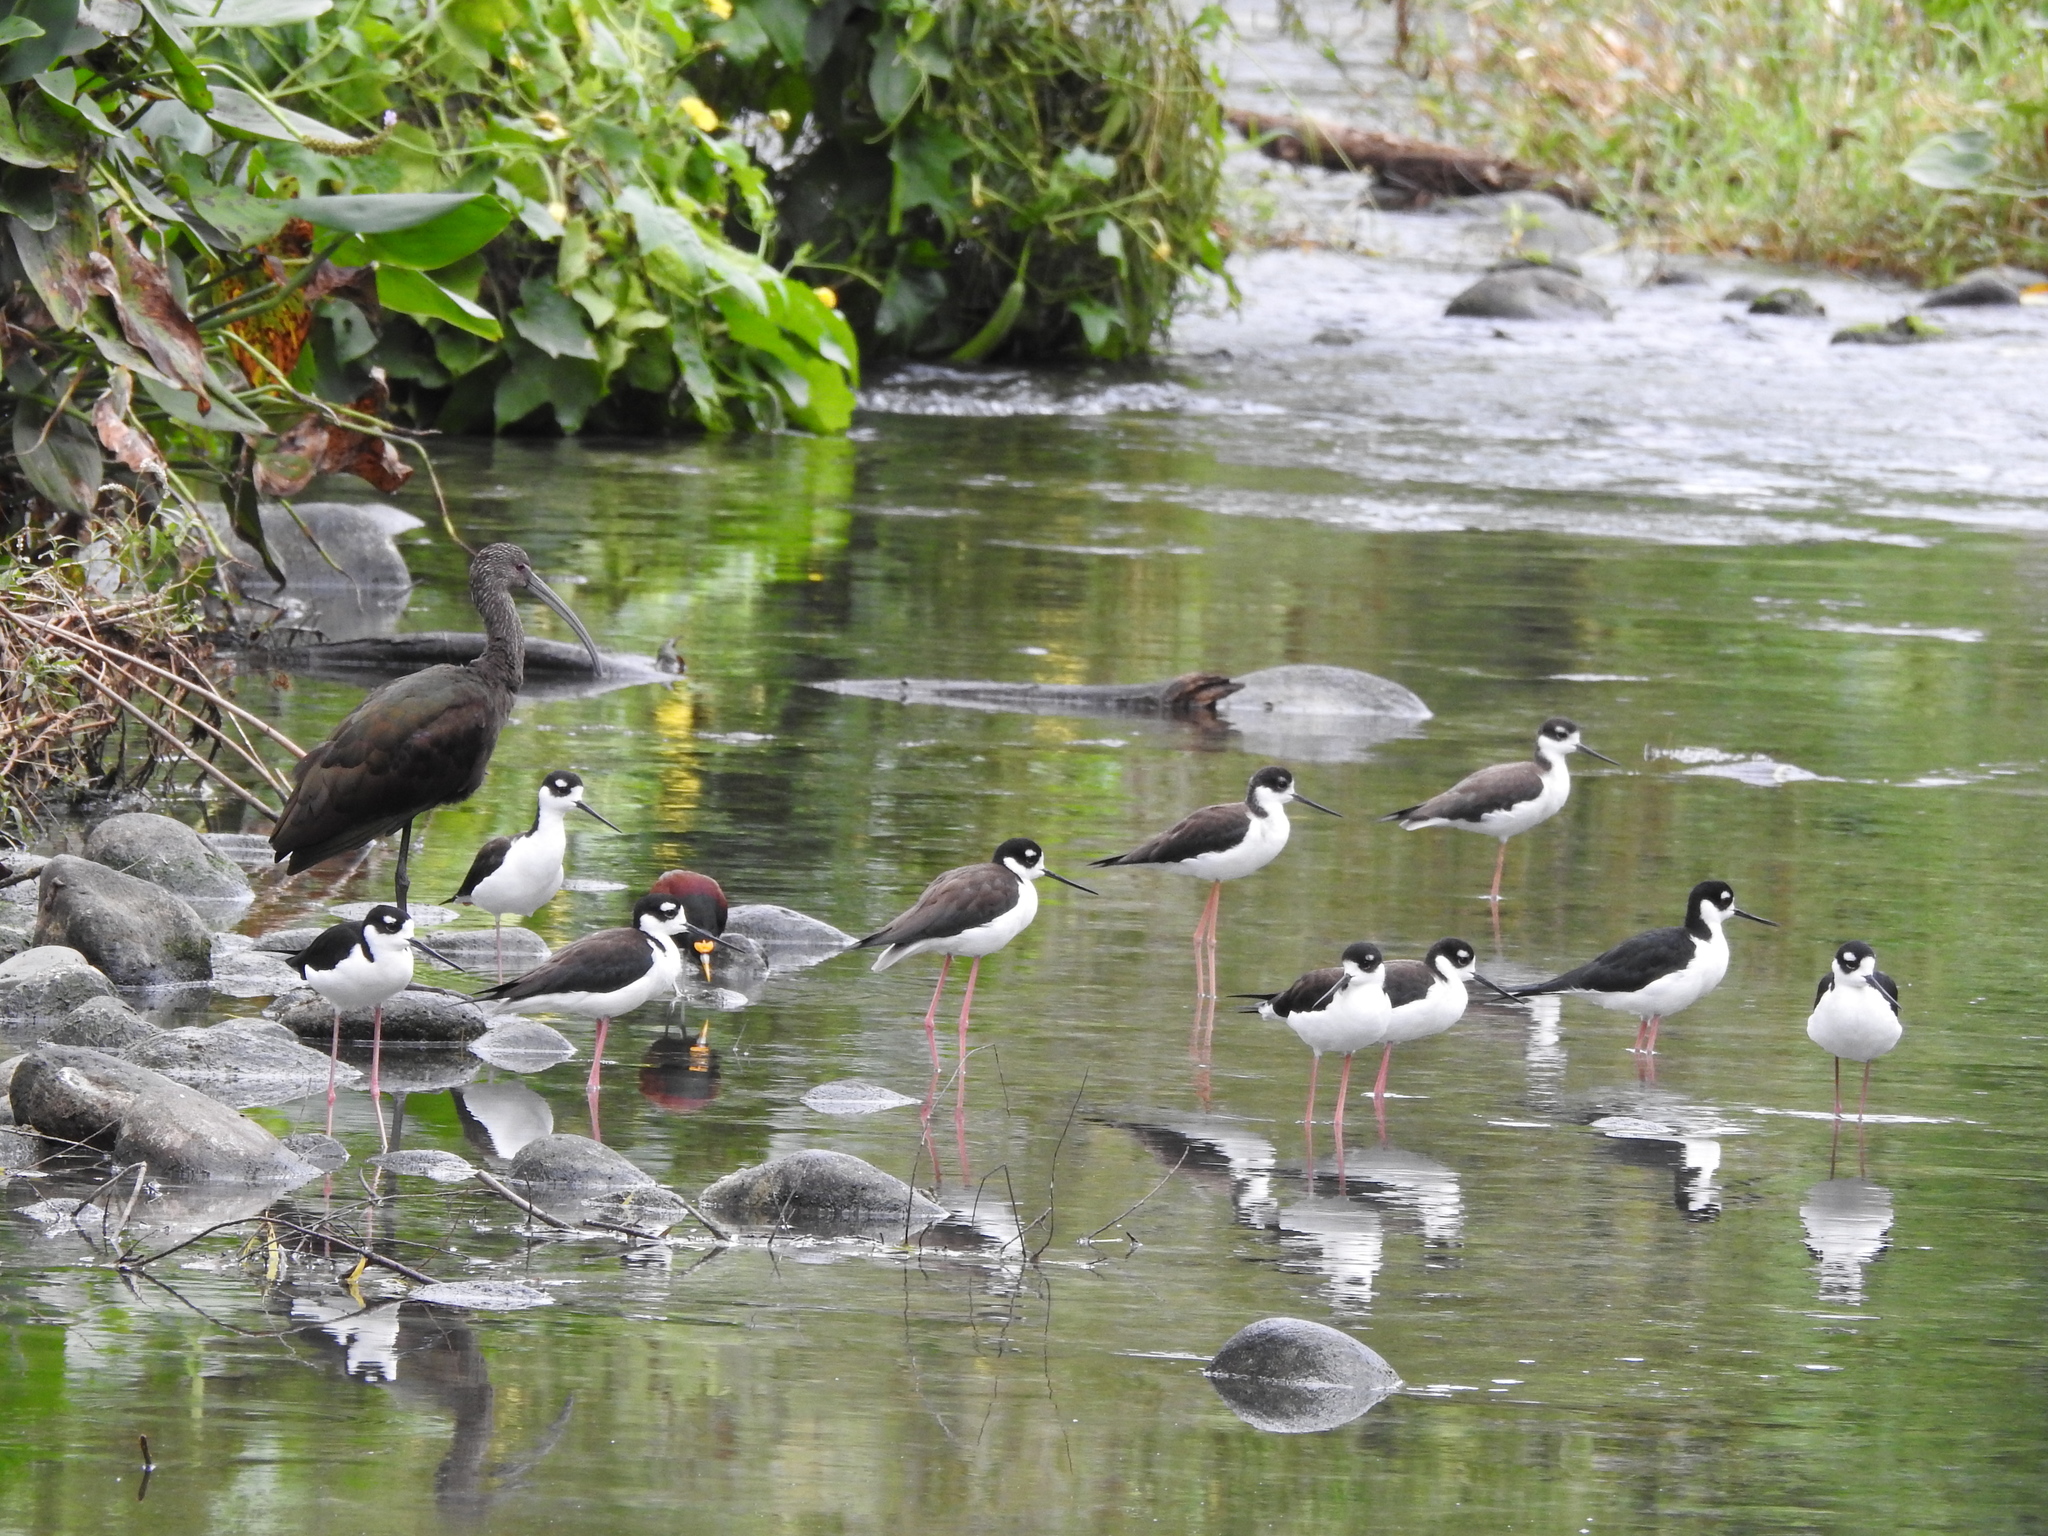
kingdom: Animalia
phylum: Chordata
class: Aves
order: Charadriiformes
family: Recurvirostridae
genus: Himantopus
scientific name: Himantopus mexicanus
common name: Black-necked stilt
